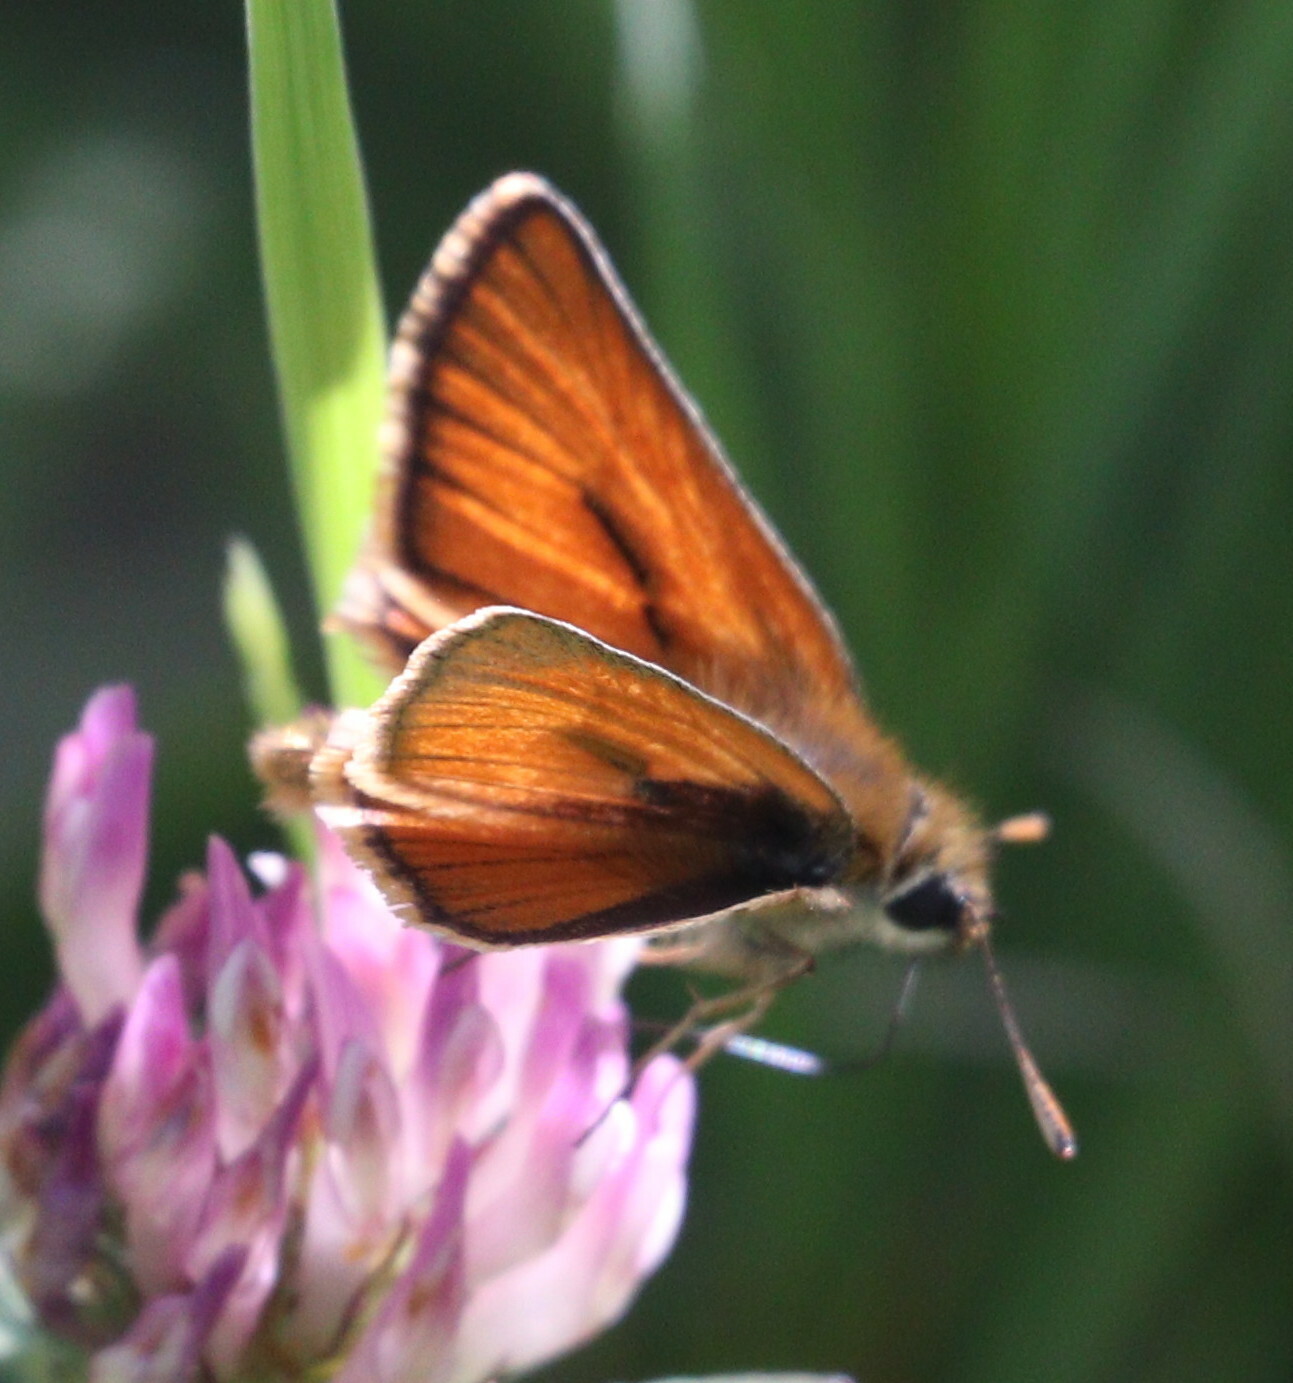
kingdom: Animalia
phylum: Arthropoda
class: Insecta
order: Lepidoptera
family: Hesperiidae
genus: Thymelicus
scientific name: Thymelicus sylvestris
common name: Small skipper
